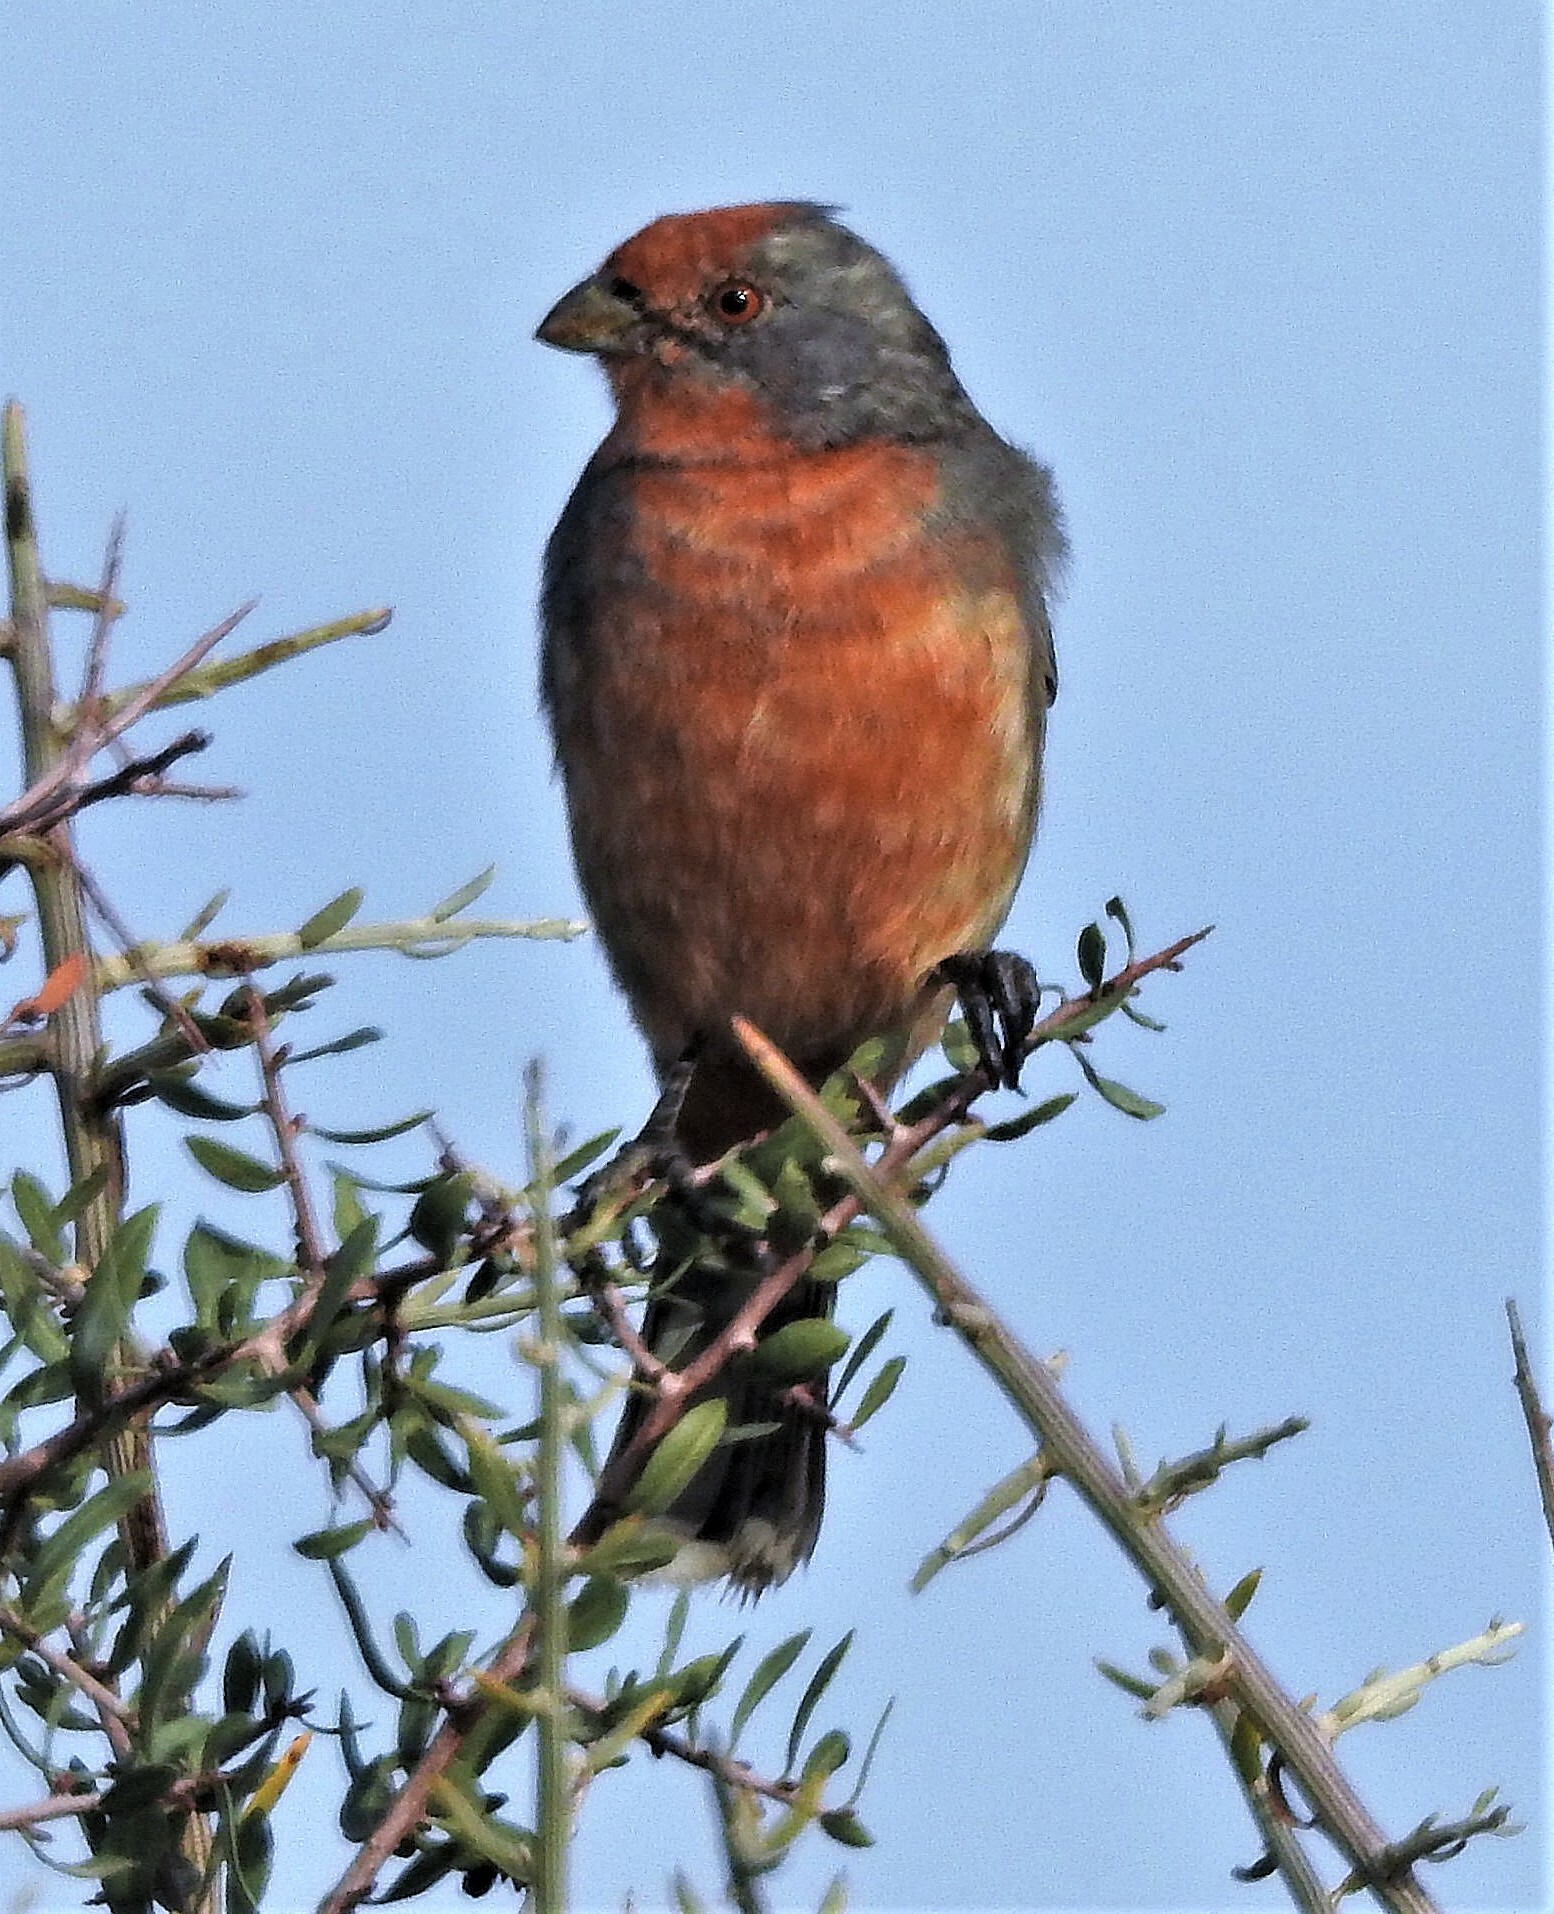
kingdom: Animalia
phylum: Chordata
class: Aves
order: Passeriformes
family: Cotingidae
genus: Phytotoma
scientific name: Phytotoma rutila
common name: White-tipped plantcutter
